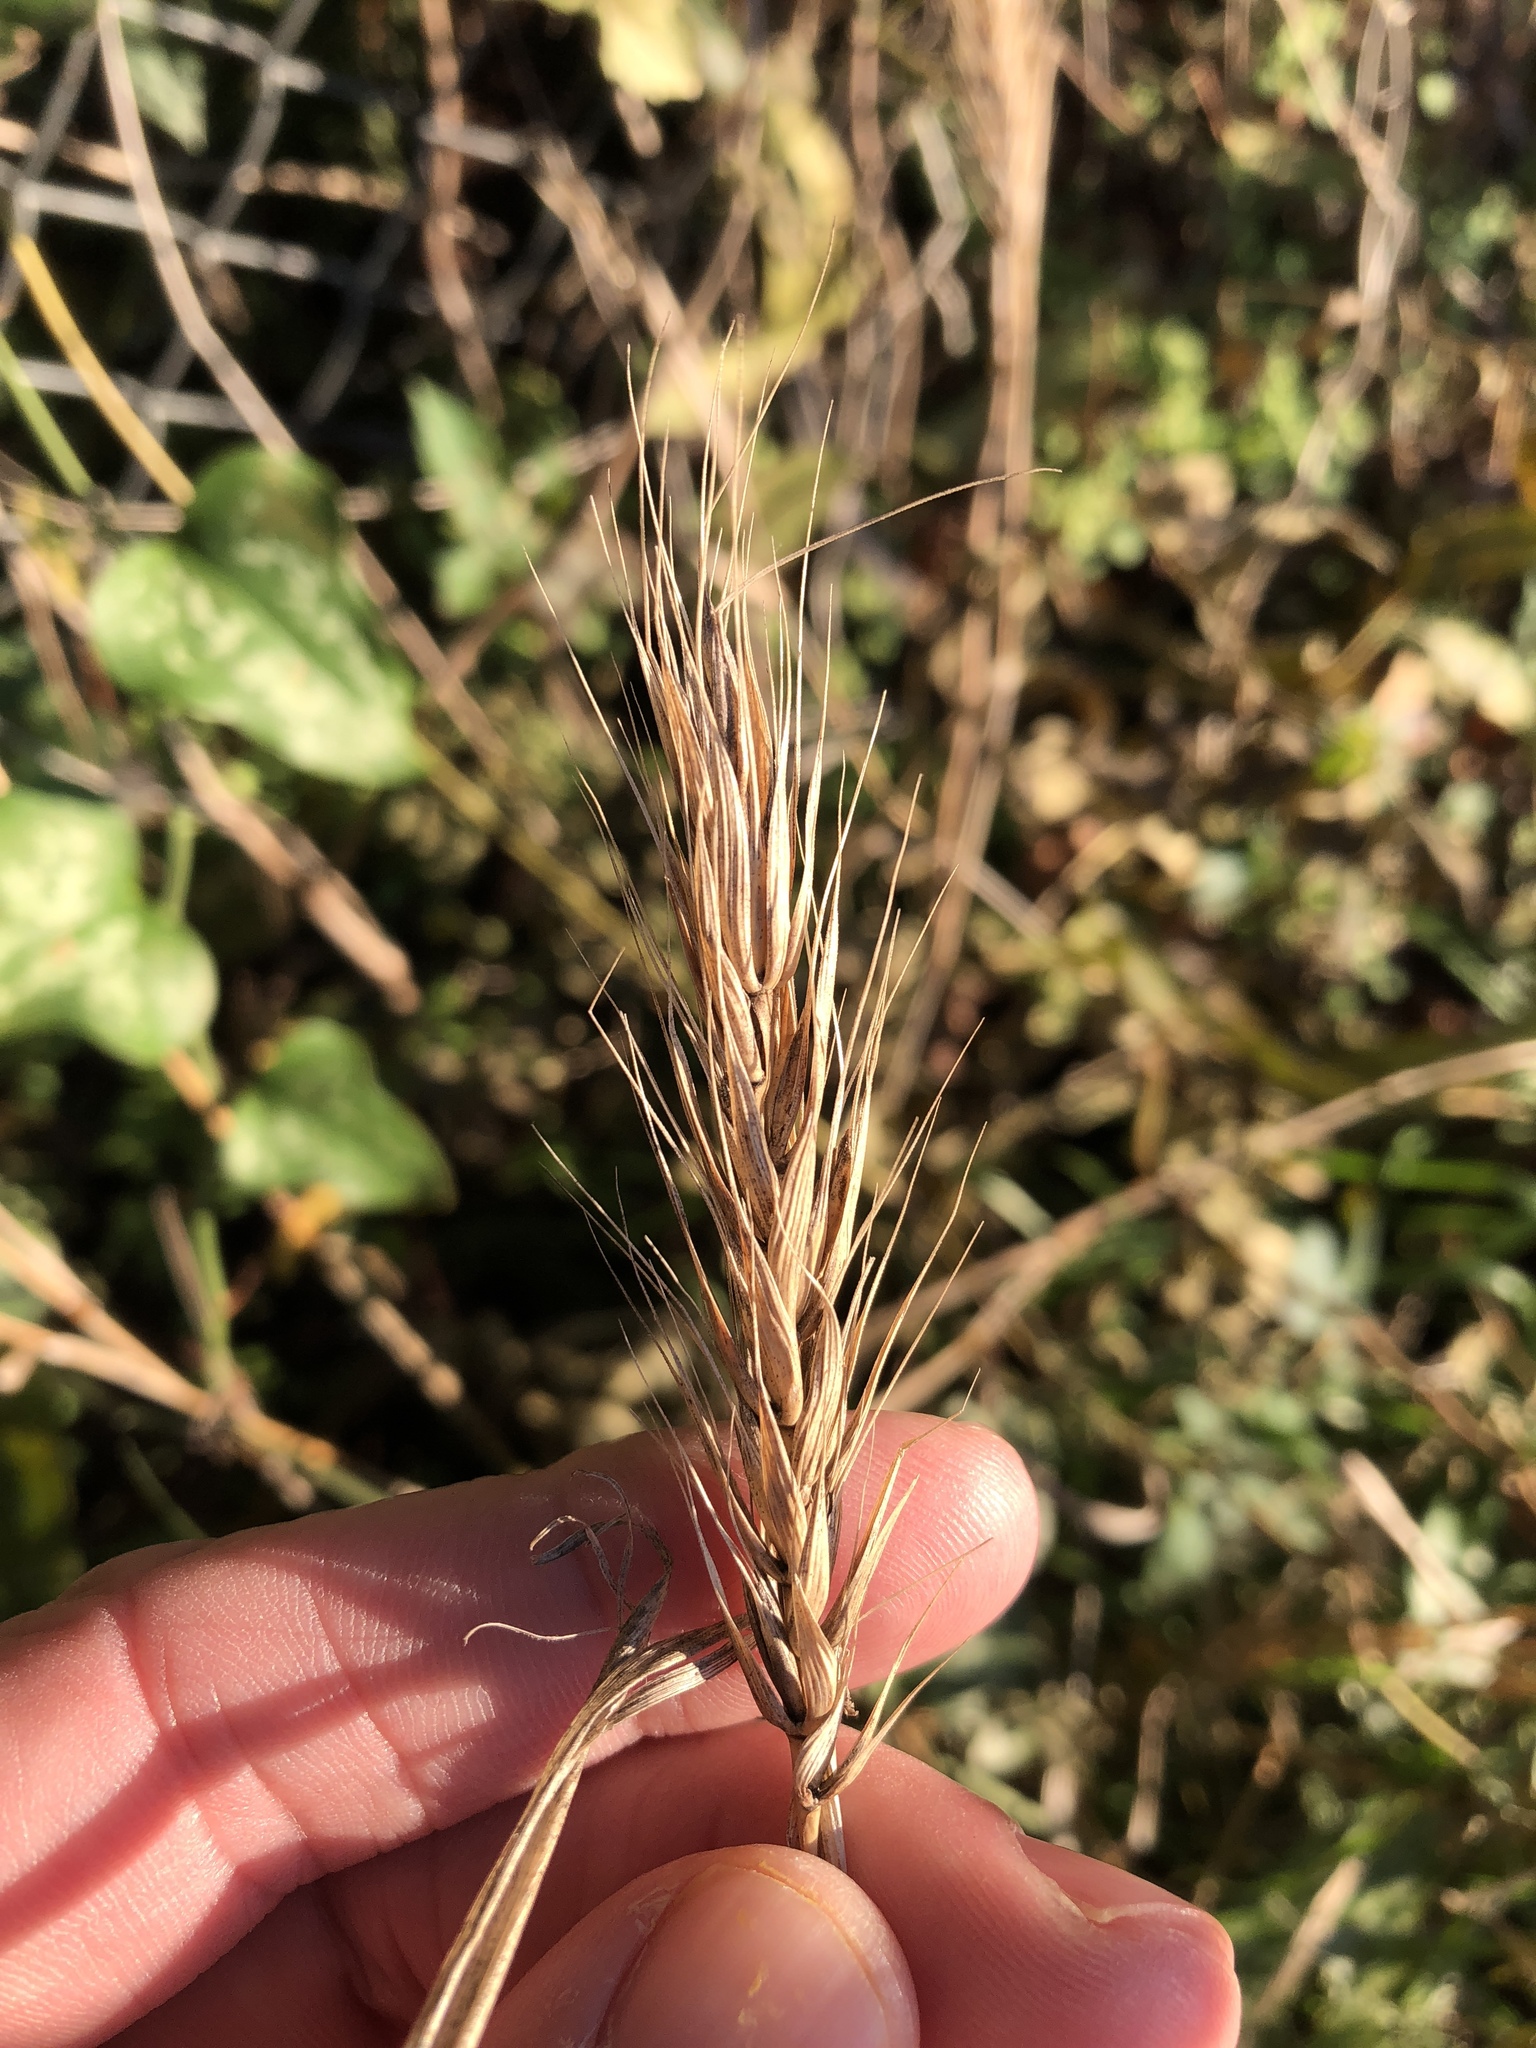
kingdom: Plantae
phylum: Tracheophyta
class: Liliopsida
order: Poales
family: Poaceae
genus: Elymus
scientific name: Elymus virginicus
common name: Common eastern wildrye
